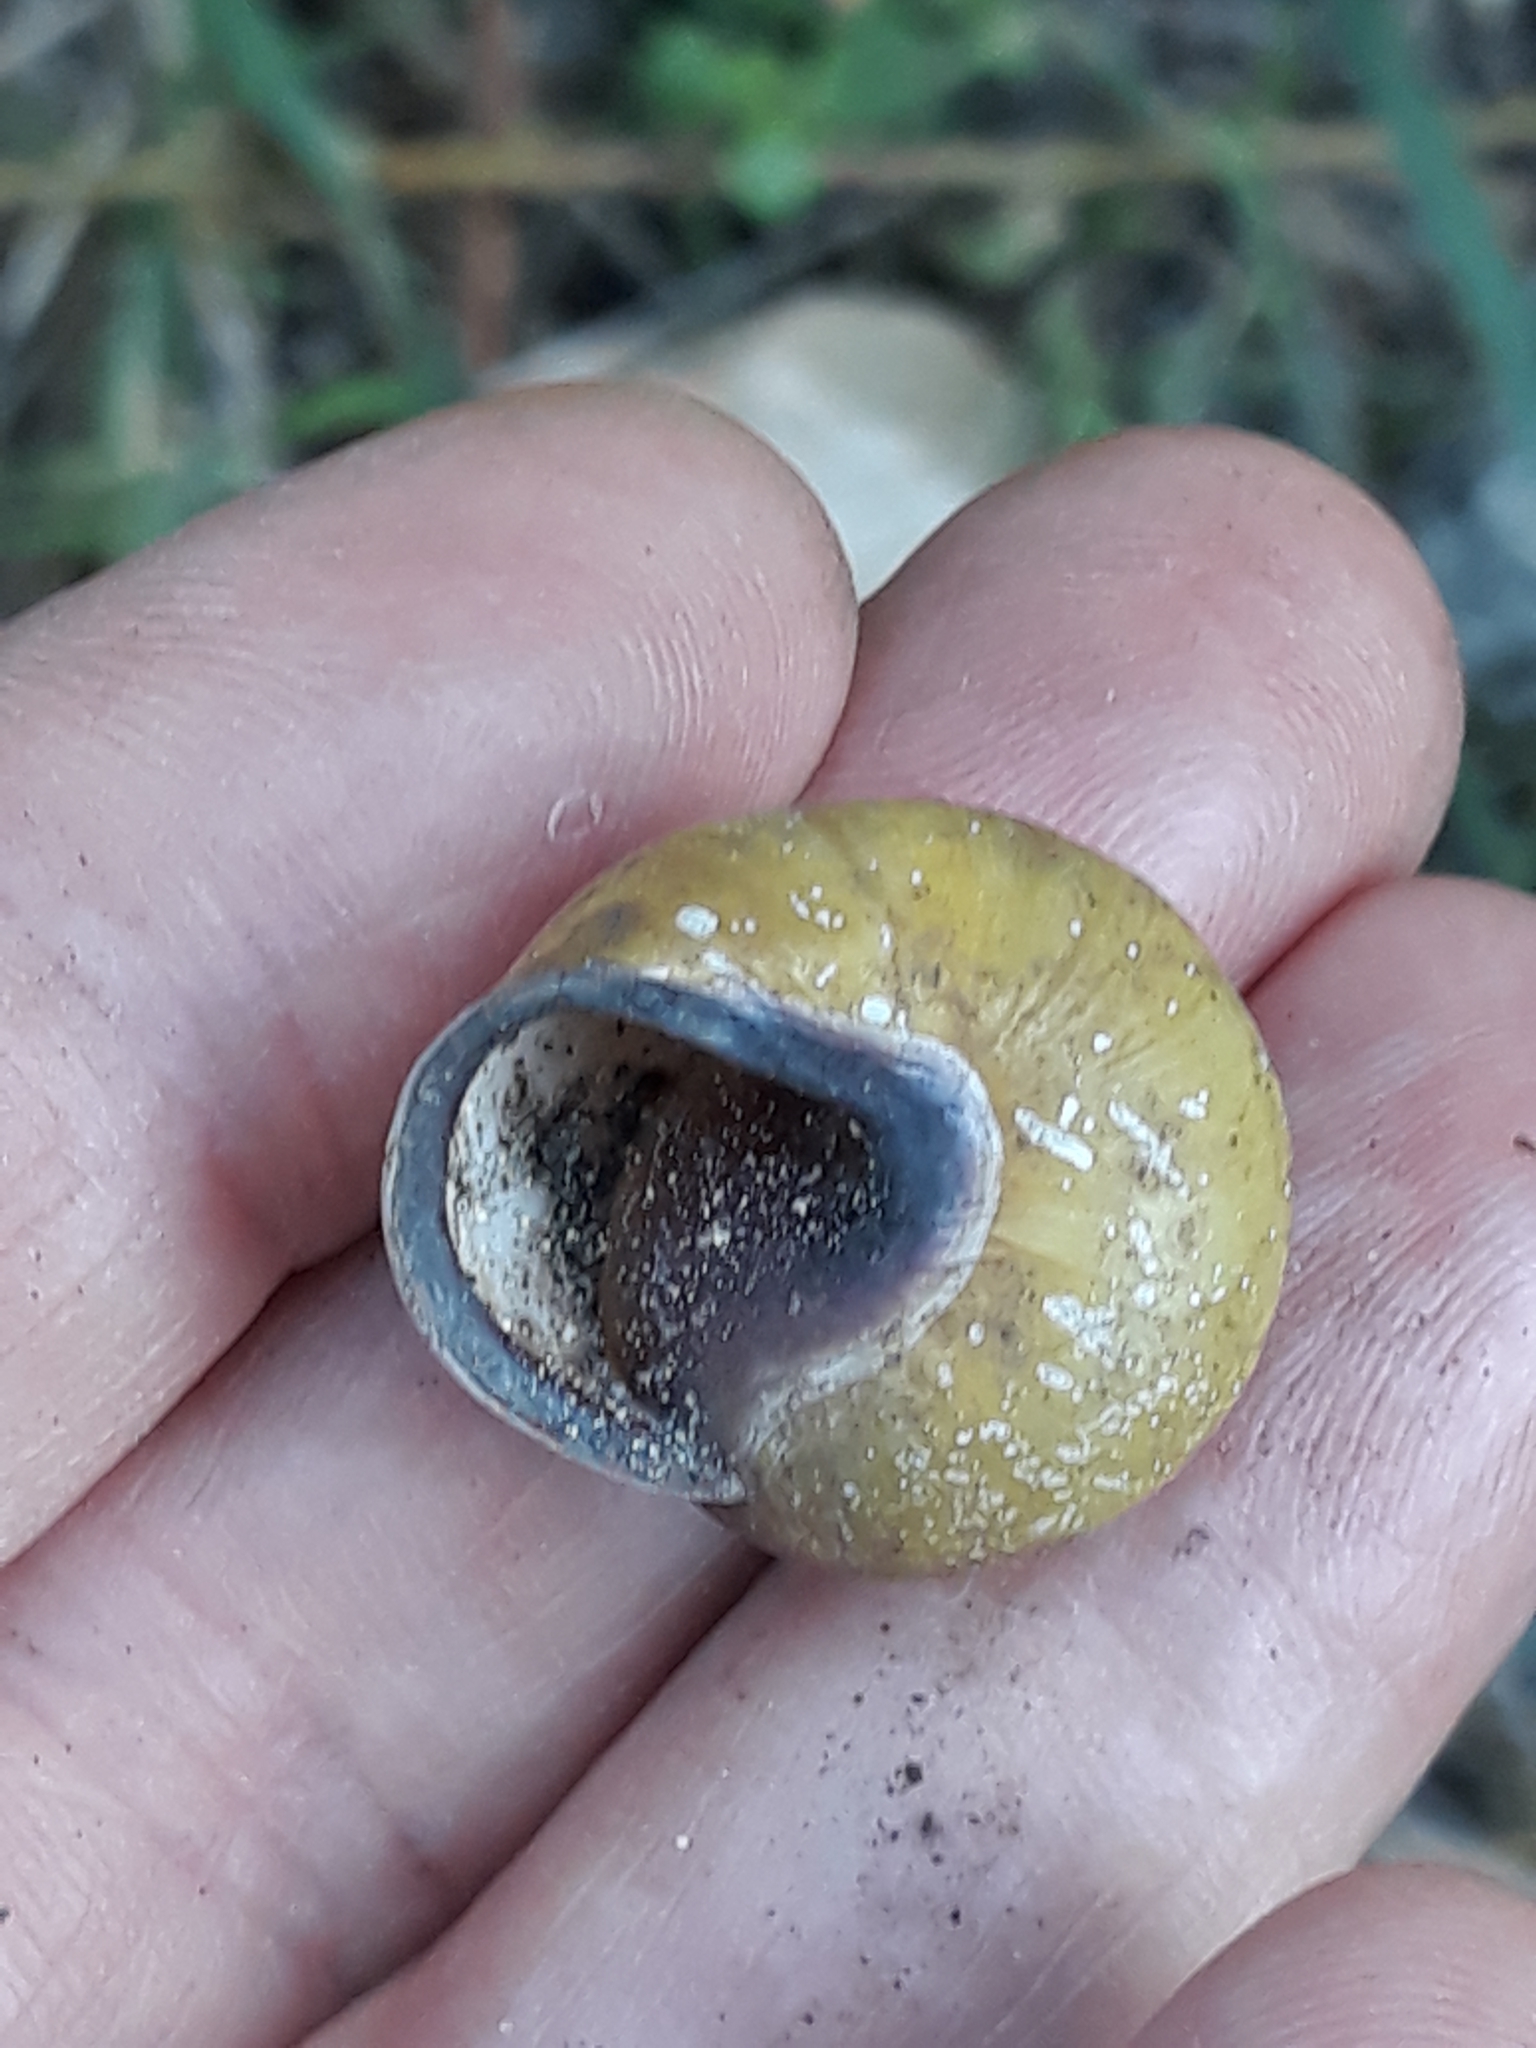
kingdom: Animalia
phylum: Mollusca
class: Gastropoda
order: Stylommatophora
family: Helicidae
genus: Cepaea
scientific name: Cepaea nemoralis
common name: Grovesnail
